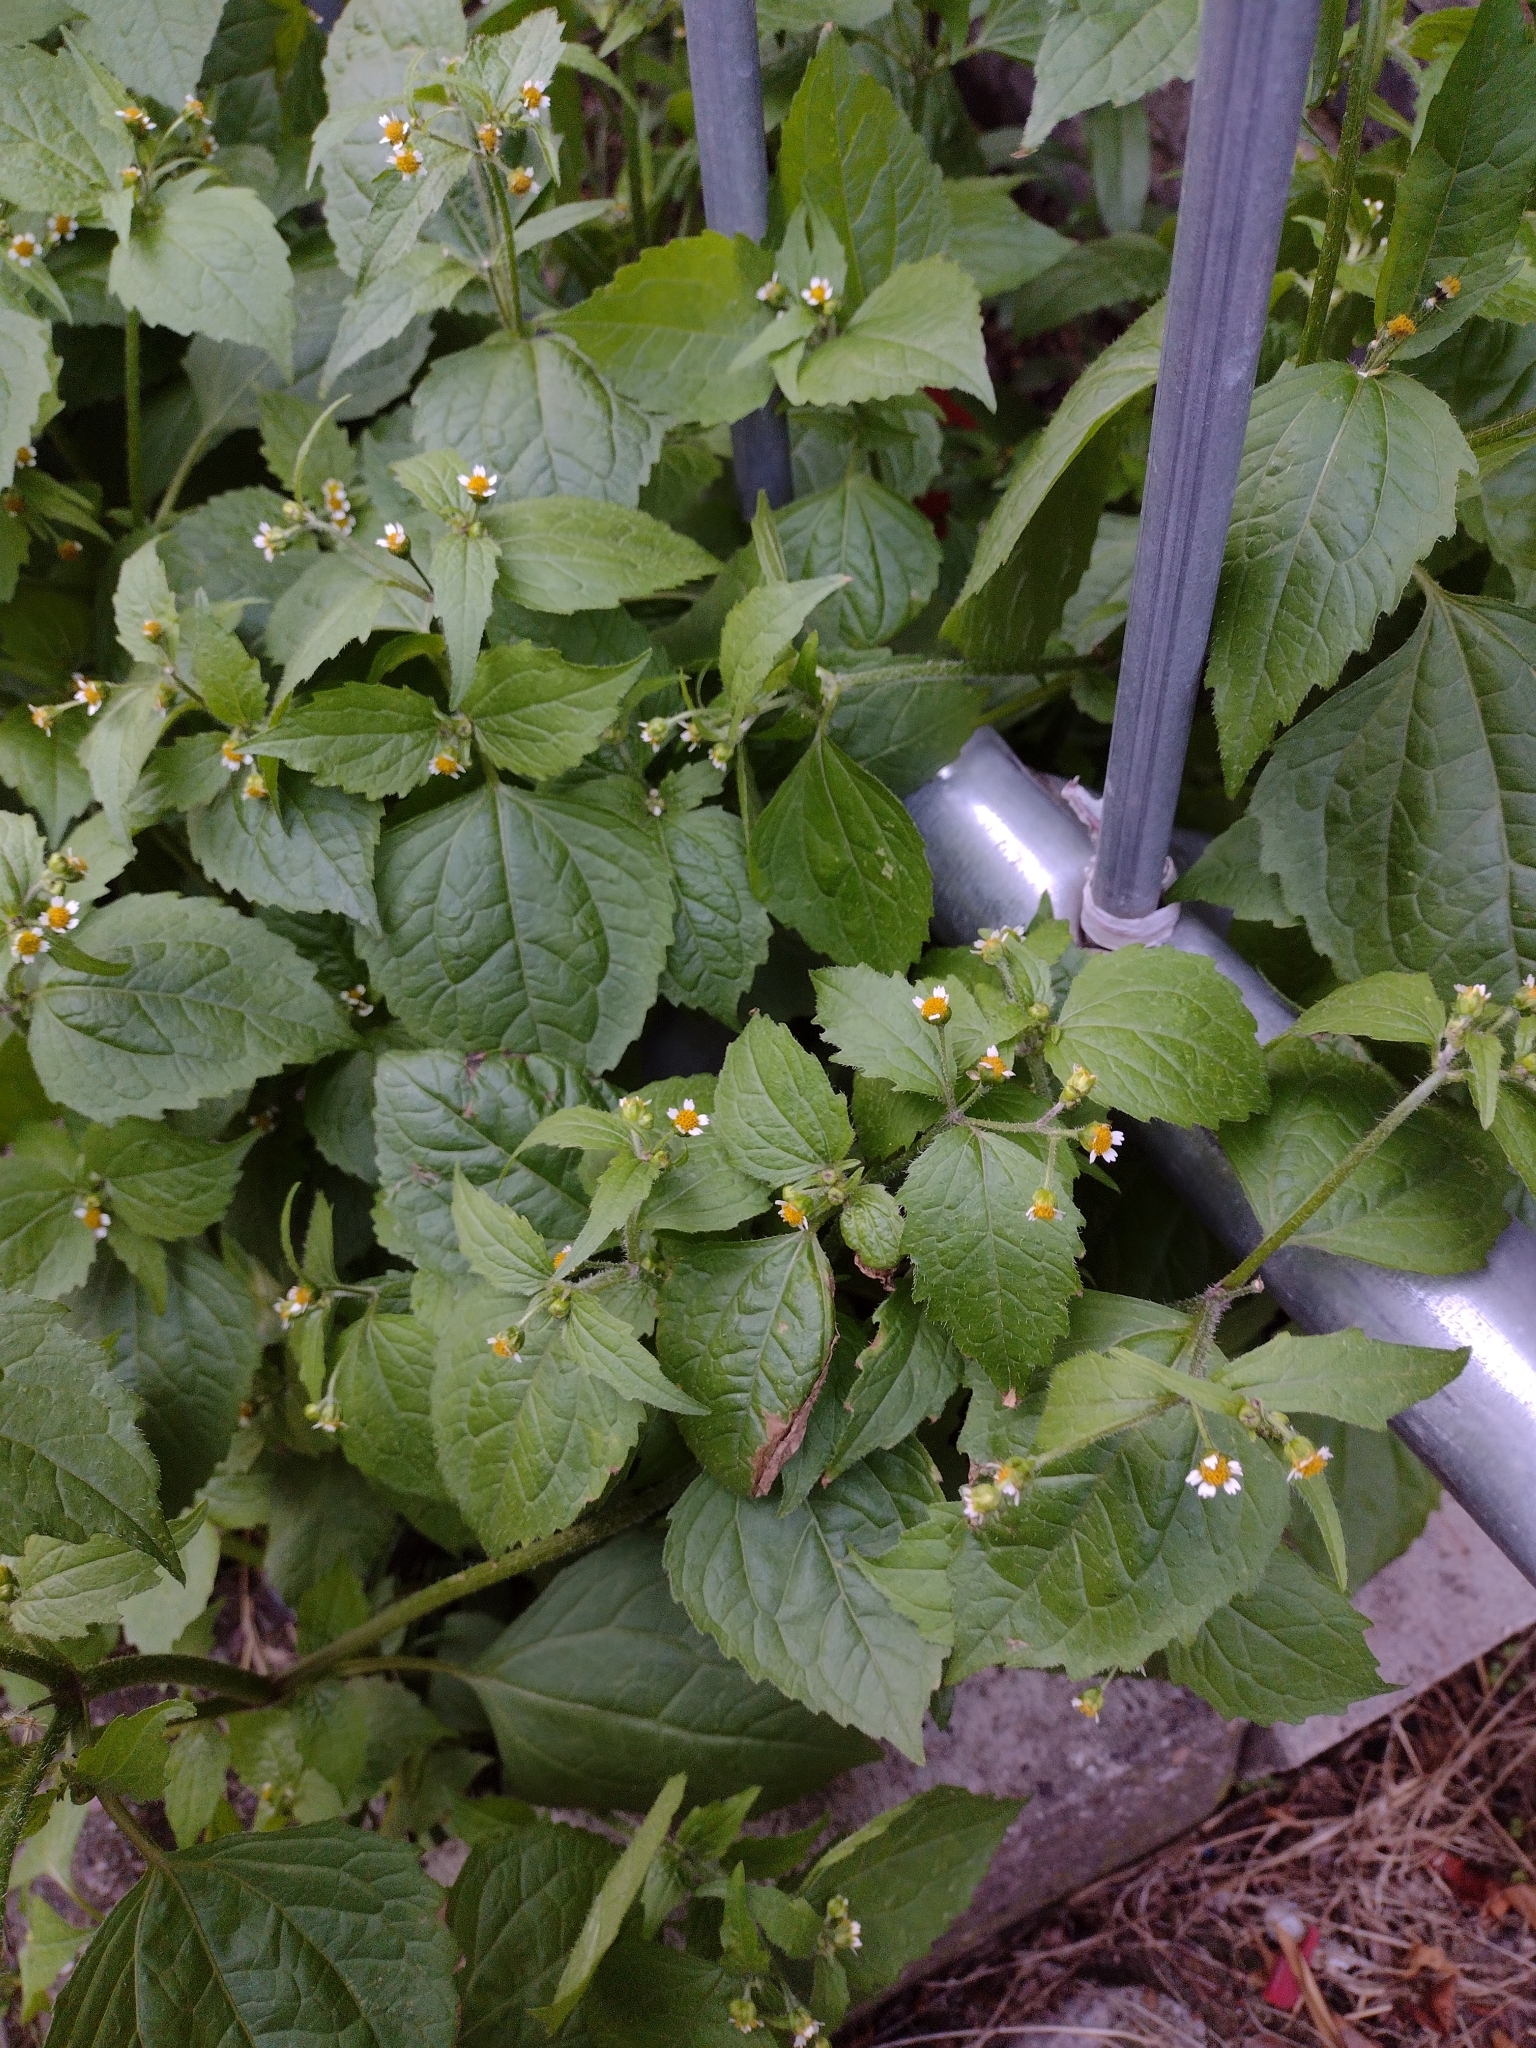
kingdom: Plantae
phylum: Tracheophyta
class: Magnoliopsida
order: Asterales
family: Asteraceae
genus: Galinsoga
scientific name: Galinsoga quadriradiata
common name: Shaggy soldier
